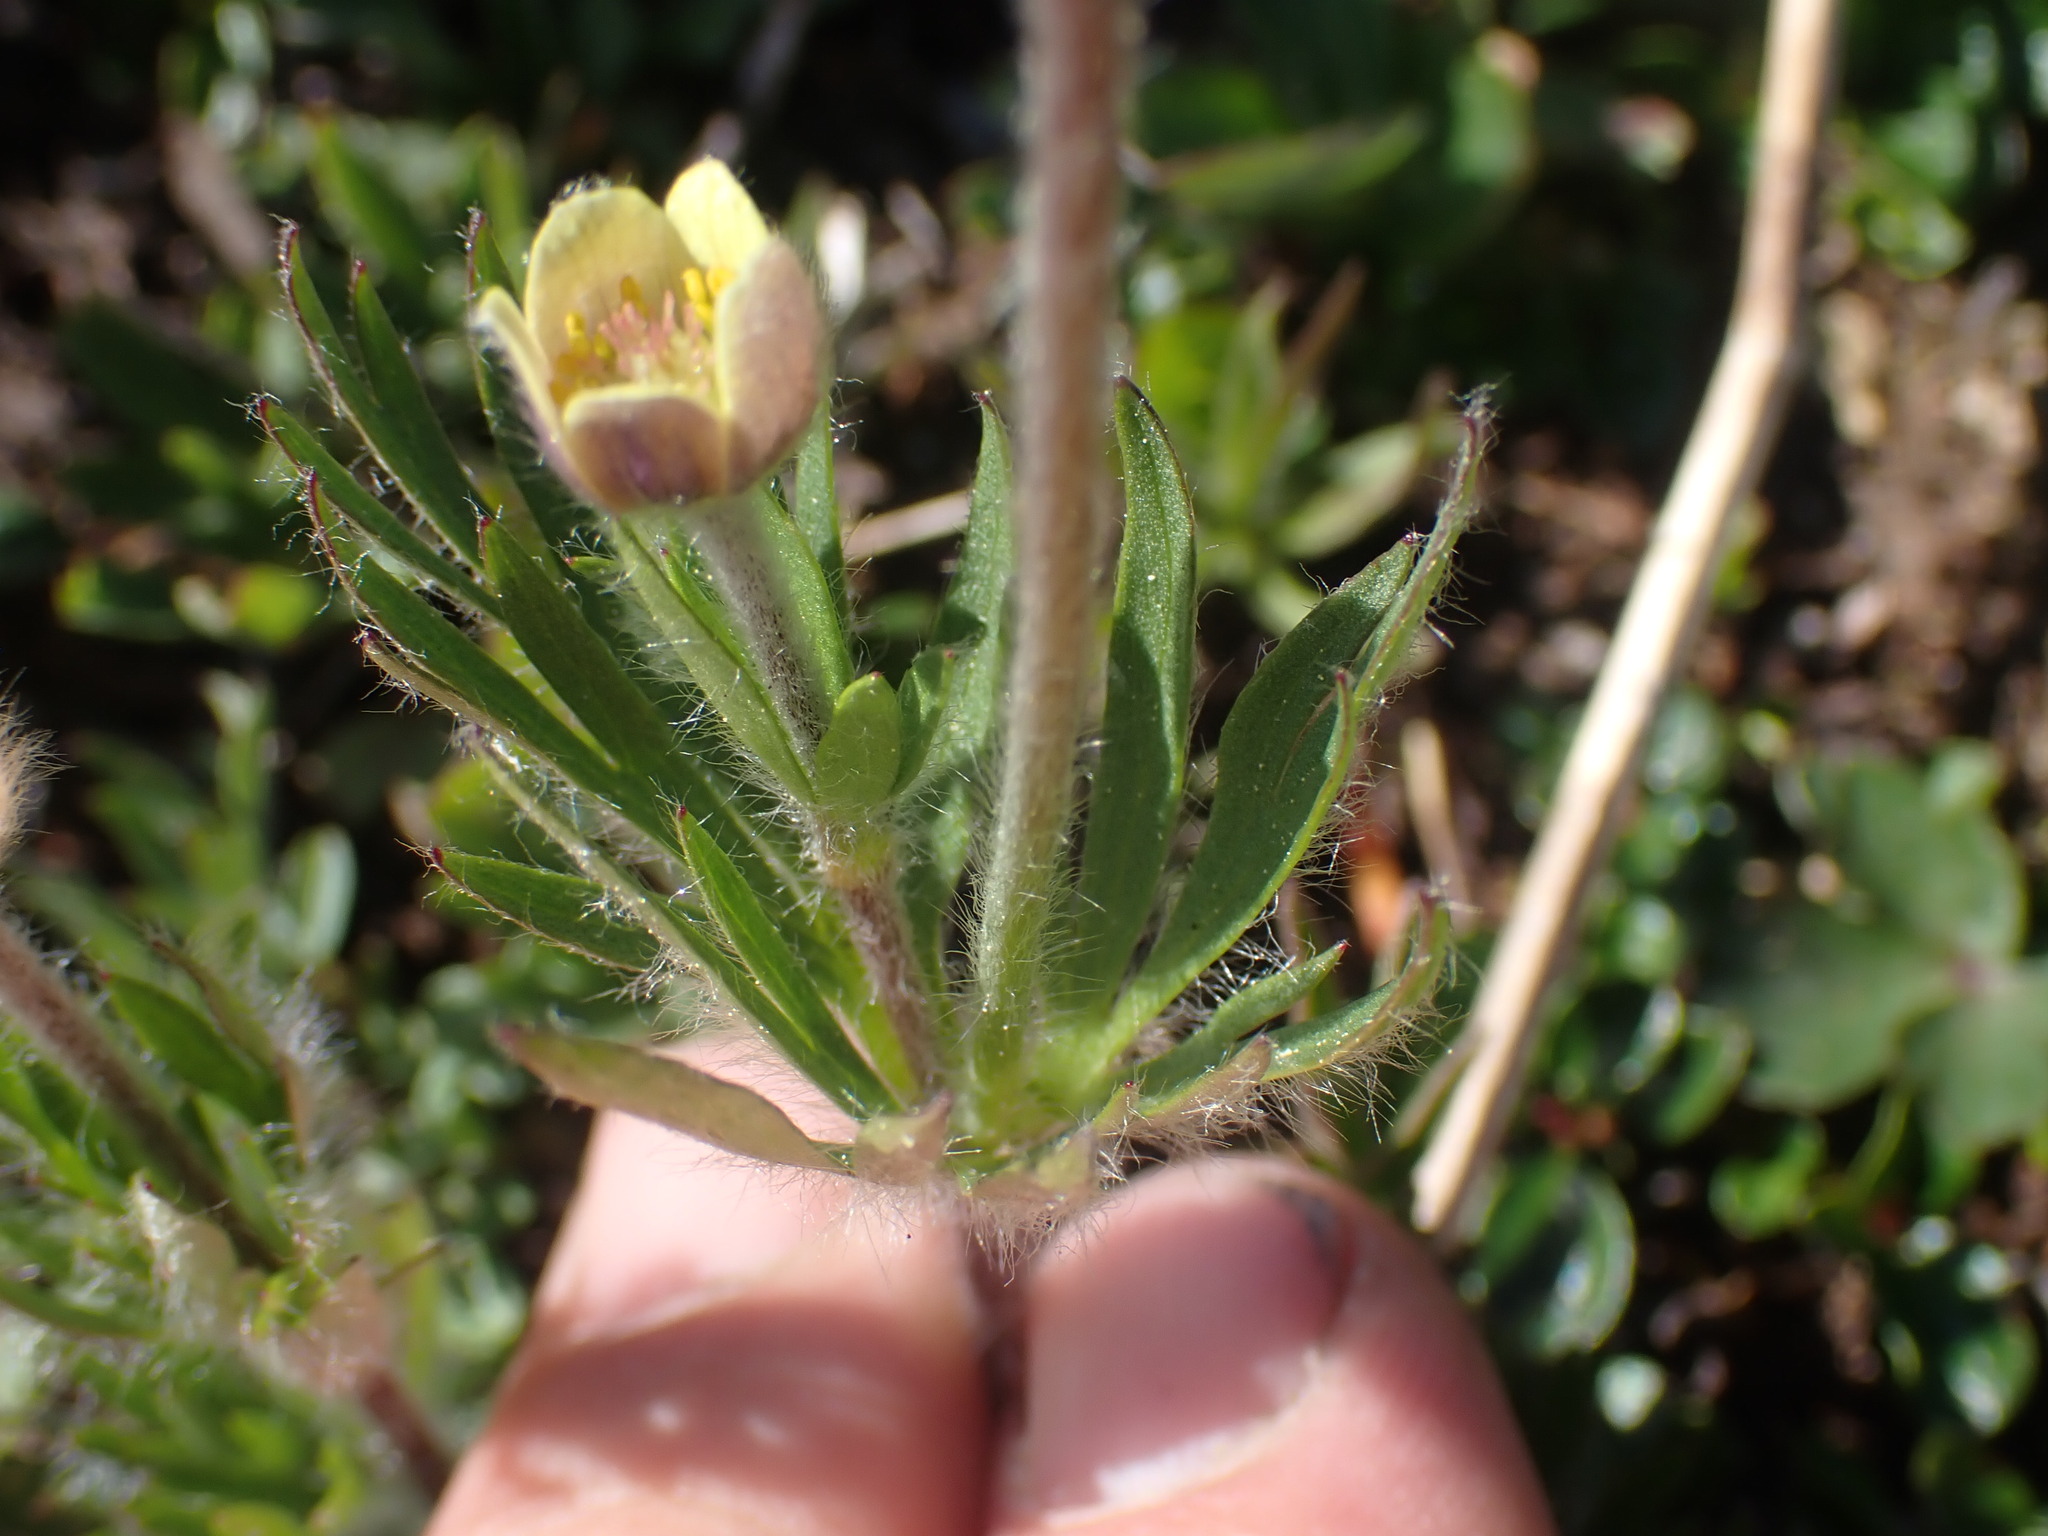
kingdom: Plantae
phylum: Tracheophyta
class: Magnoliopsida
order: Ranunculales
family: Ranunculaceae
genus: Anemone
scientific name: Anemone multifida
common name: Bird's-foot anemone
